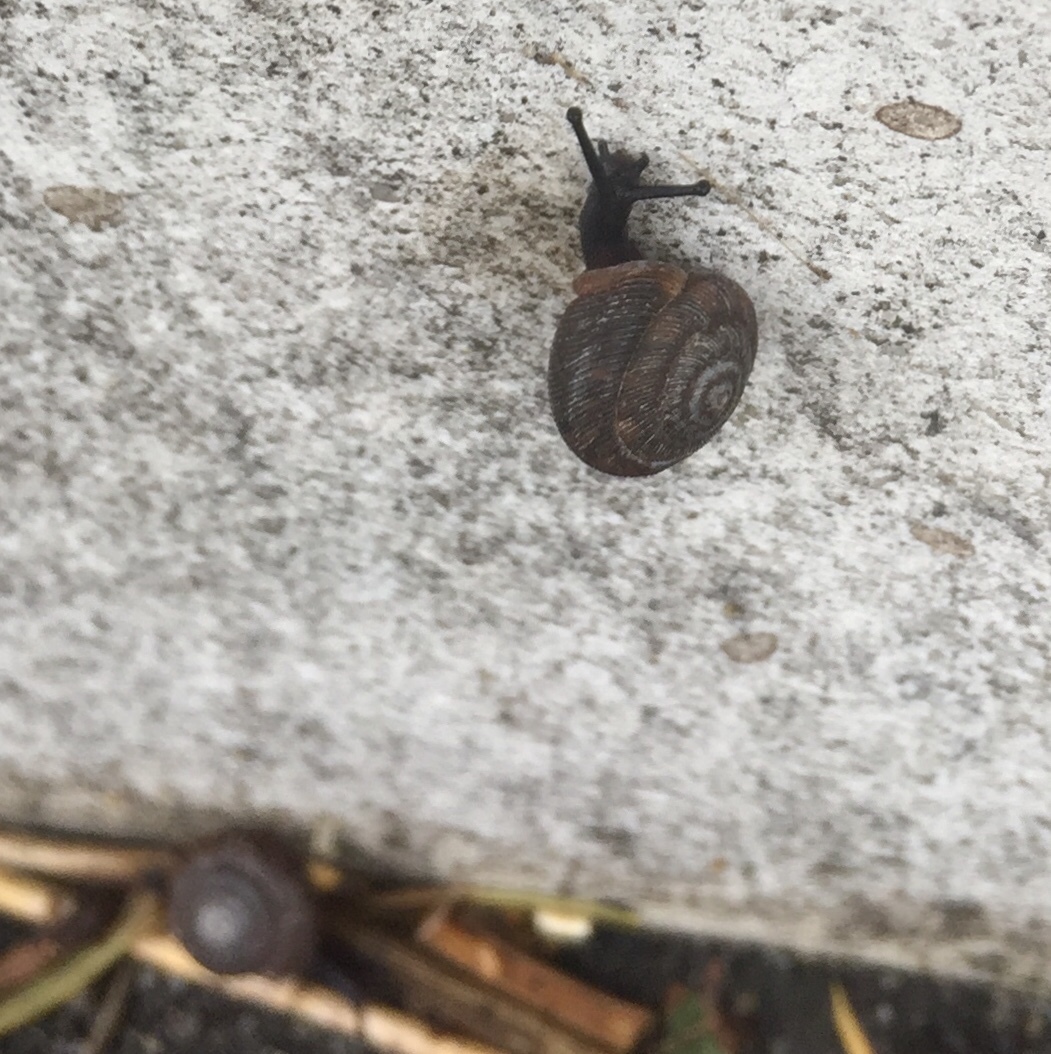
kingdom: Animalia
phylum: Mollusca
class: Gastropoda
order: Stylommatophora
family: Polygyridae
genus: Triodopsis
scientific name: Triodopsis hopetonensis
